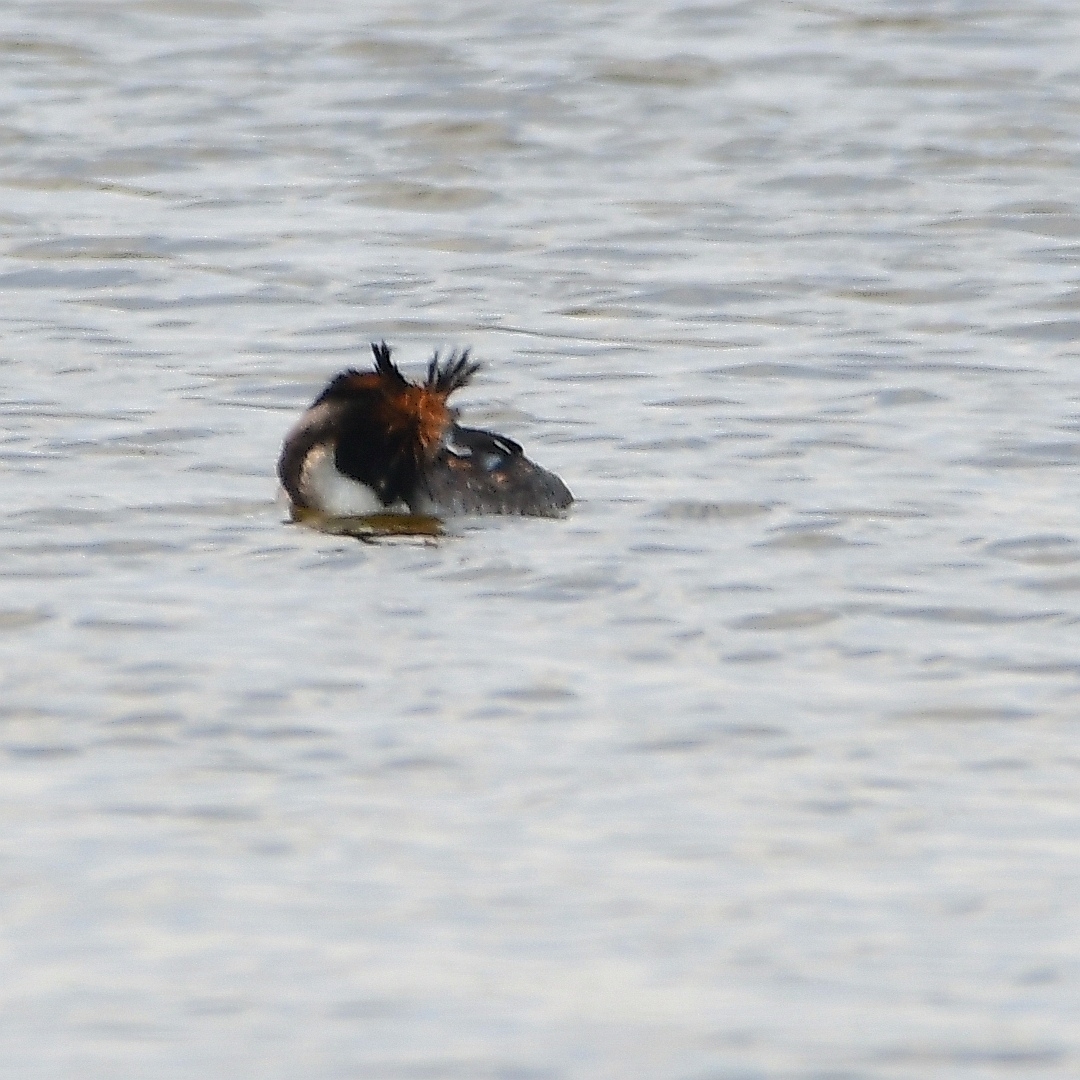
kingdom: Animalia
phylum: Chordata
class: Aves
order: Podicipediformes
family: Podicipedidae
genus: Podiceps
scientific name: Podiceps cristatus
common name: Great crested grebe
